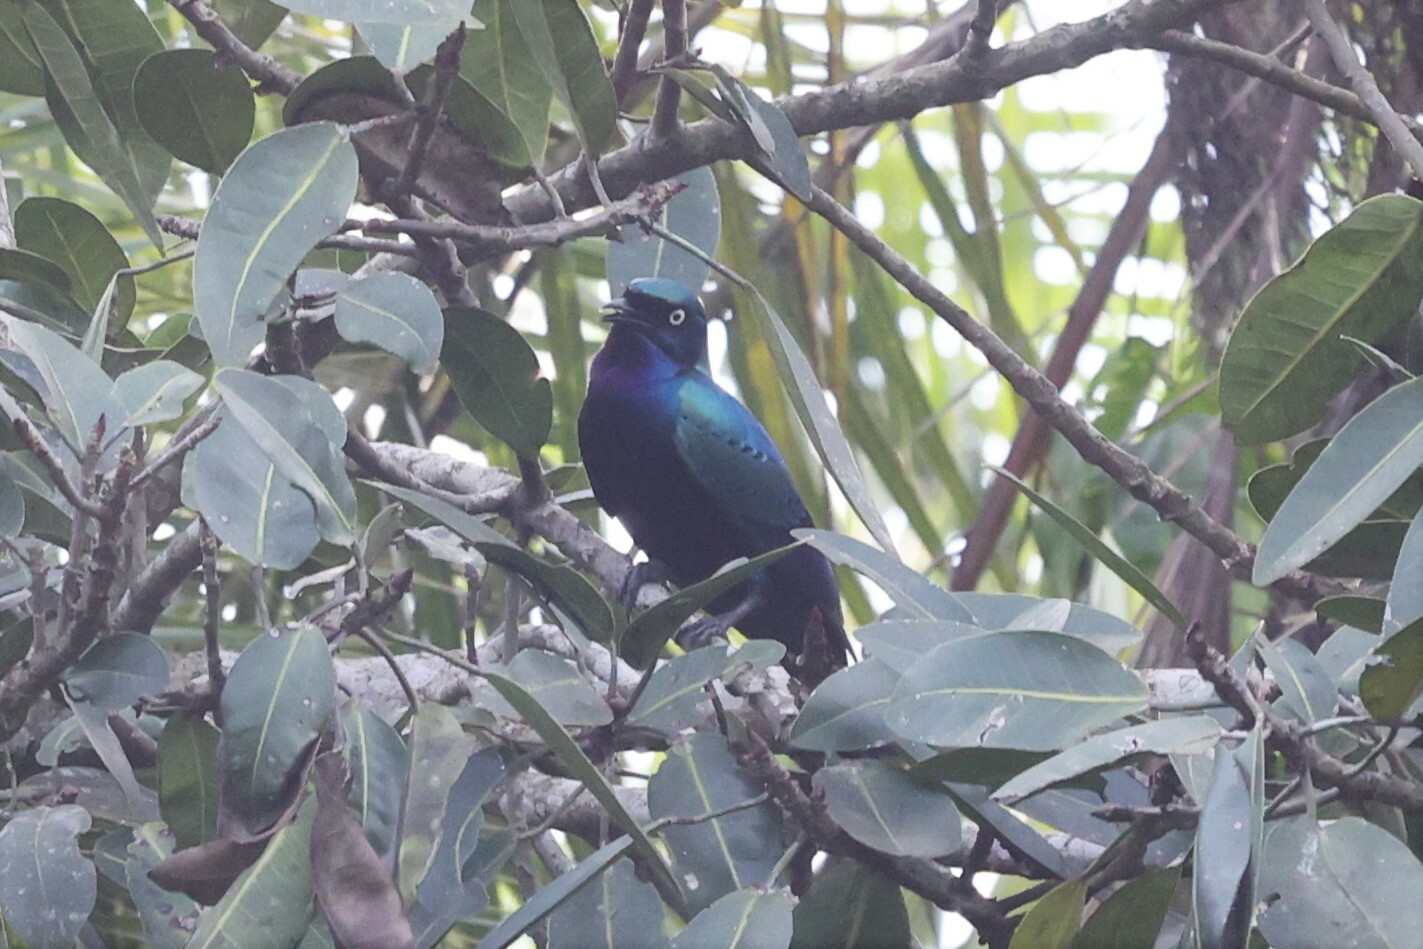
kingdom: Animalia
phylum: Chordata
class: Aves
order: Passeriformes
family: Sturnidae
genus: Lamprotornis
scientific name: Lamprotornis splendidus
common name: Splendid starling
